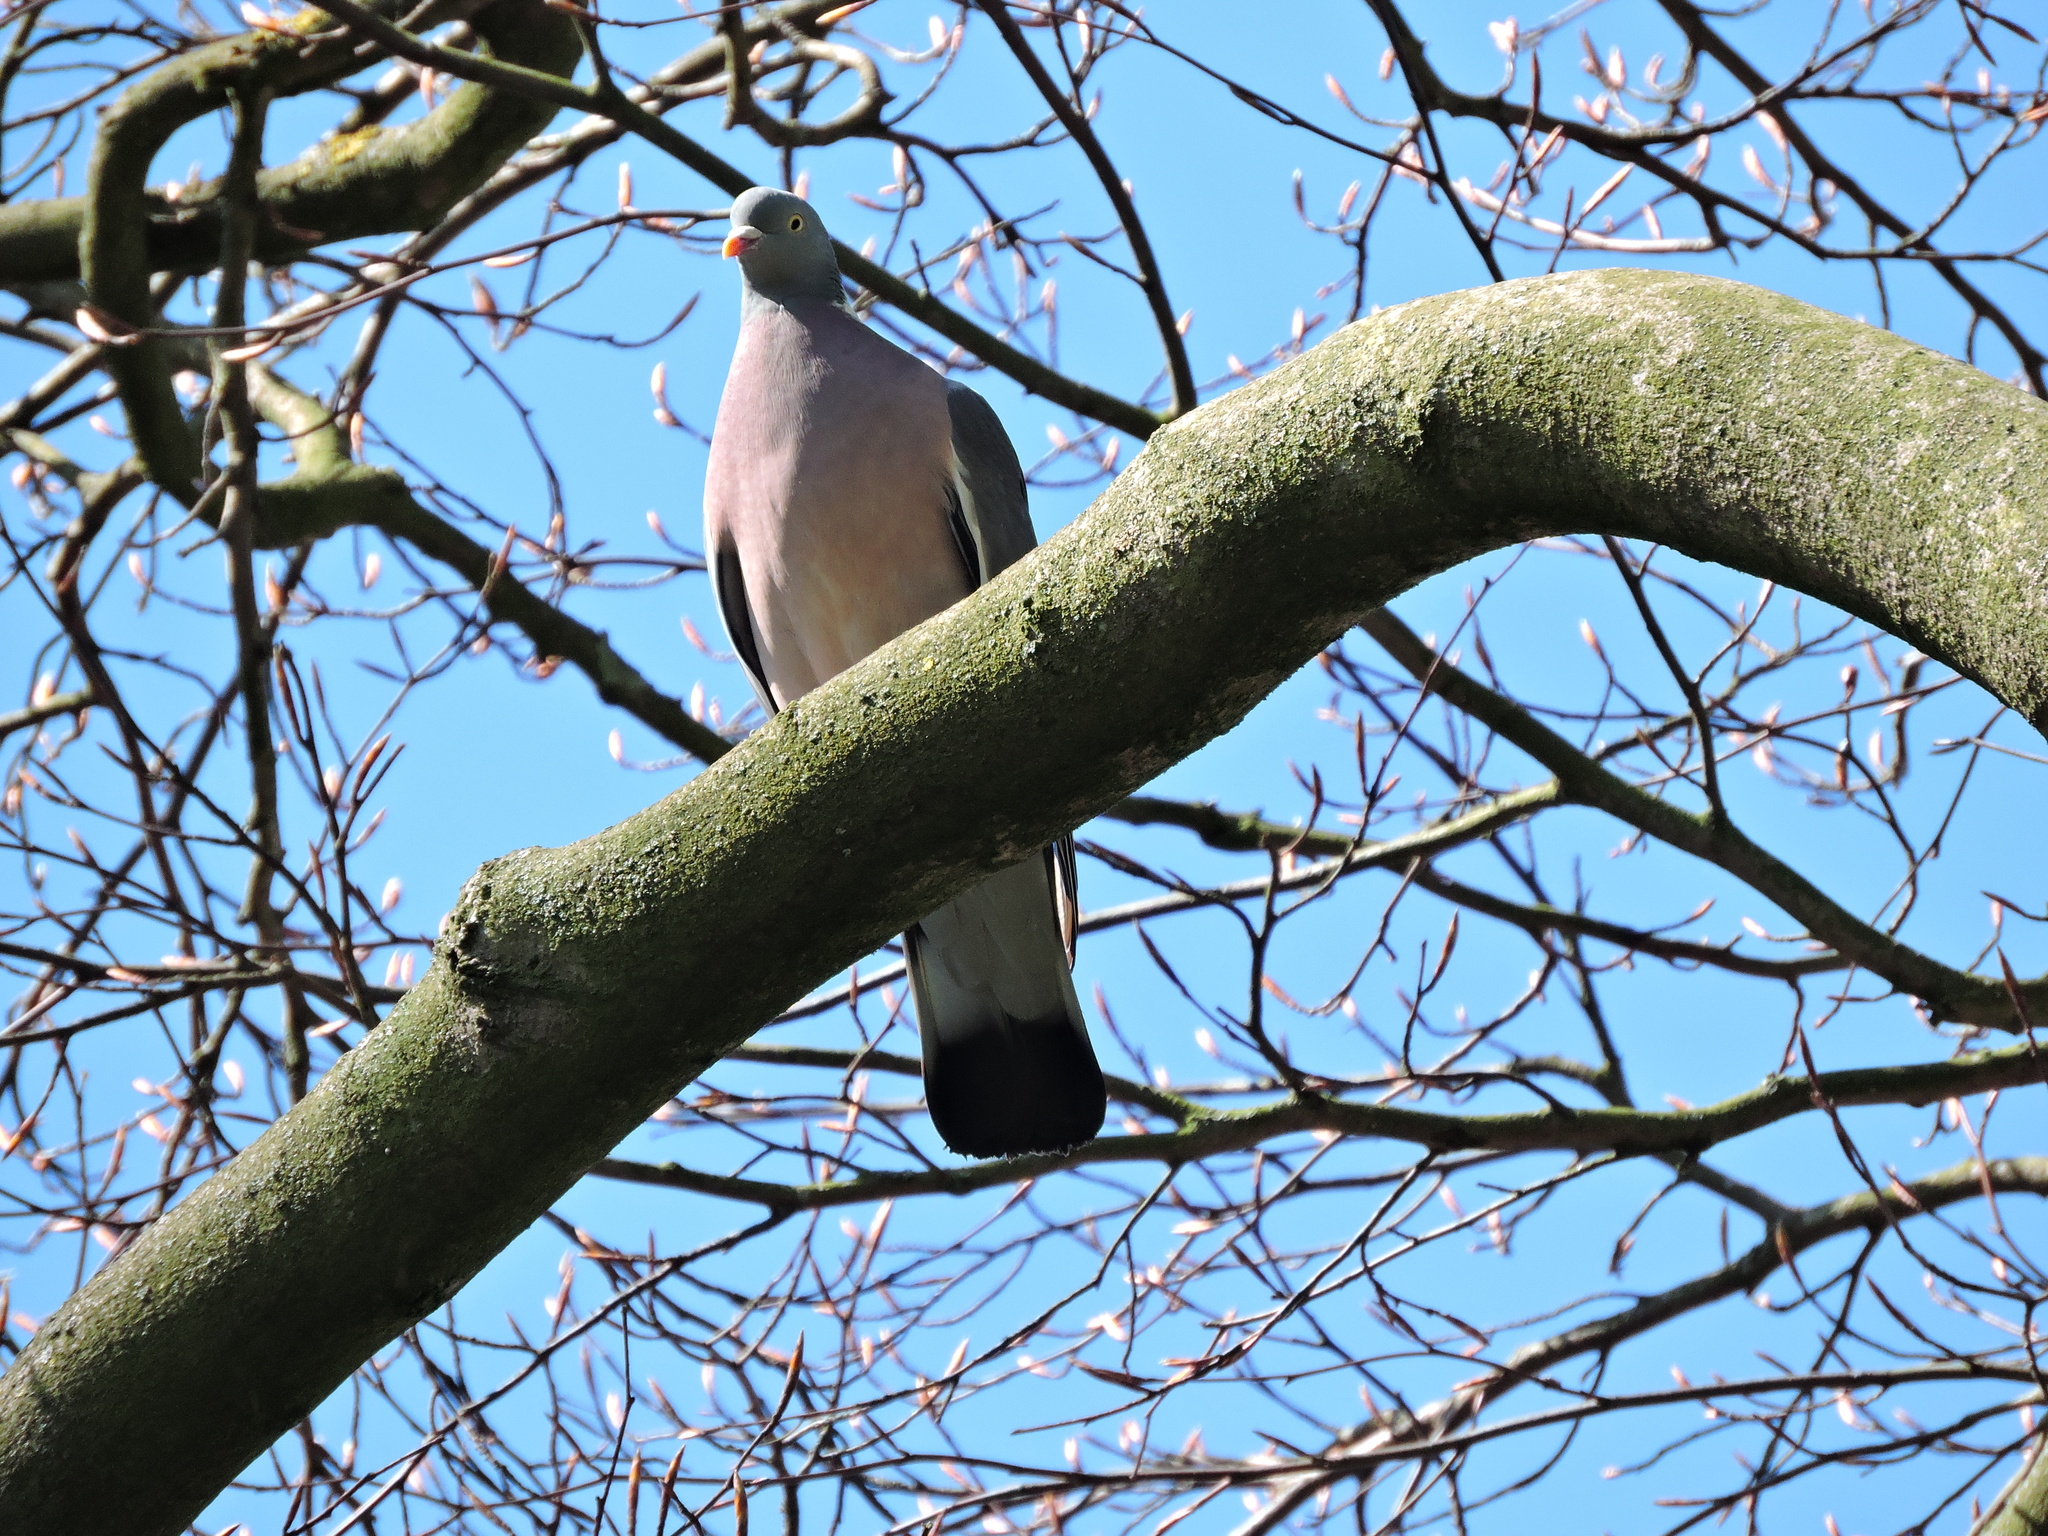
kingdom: Animalia
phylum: Chordata
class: Aves
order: Columbiformes
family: Columbidae
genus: Columba
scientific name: Columba palumbus
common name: Common wood pigeon
